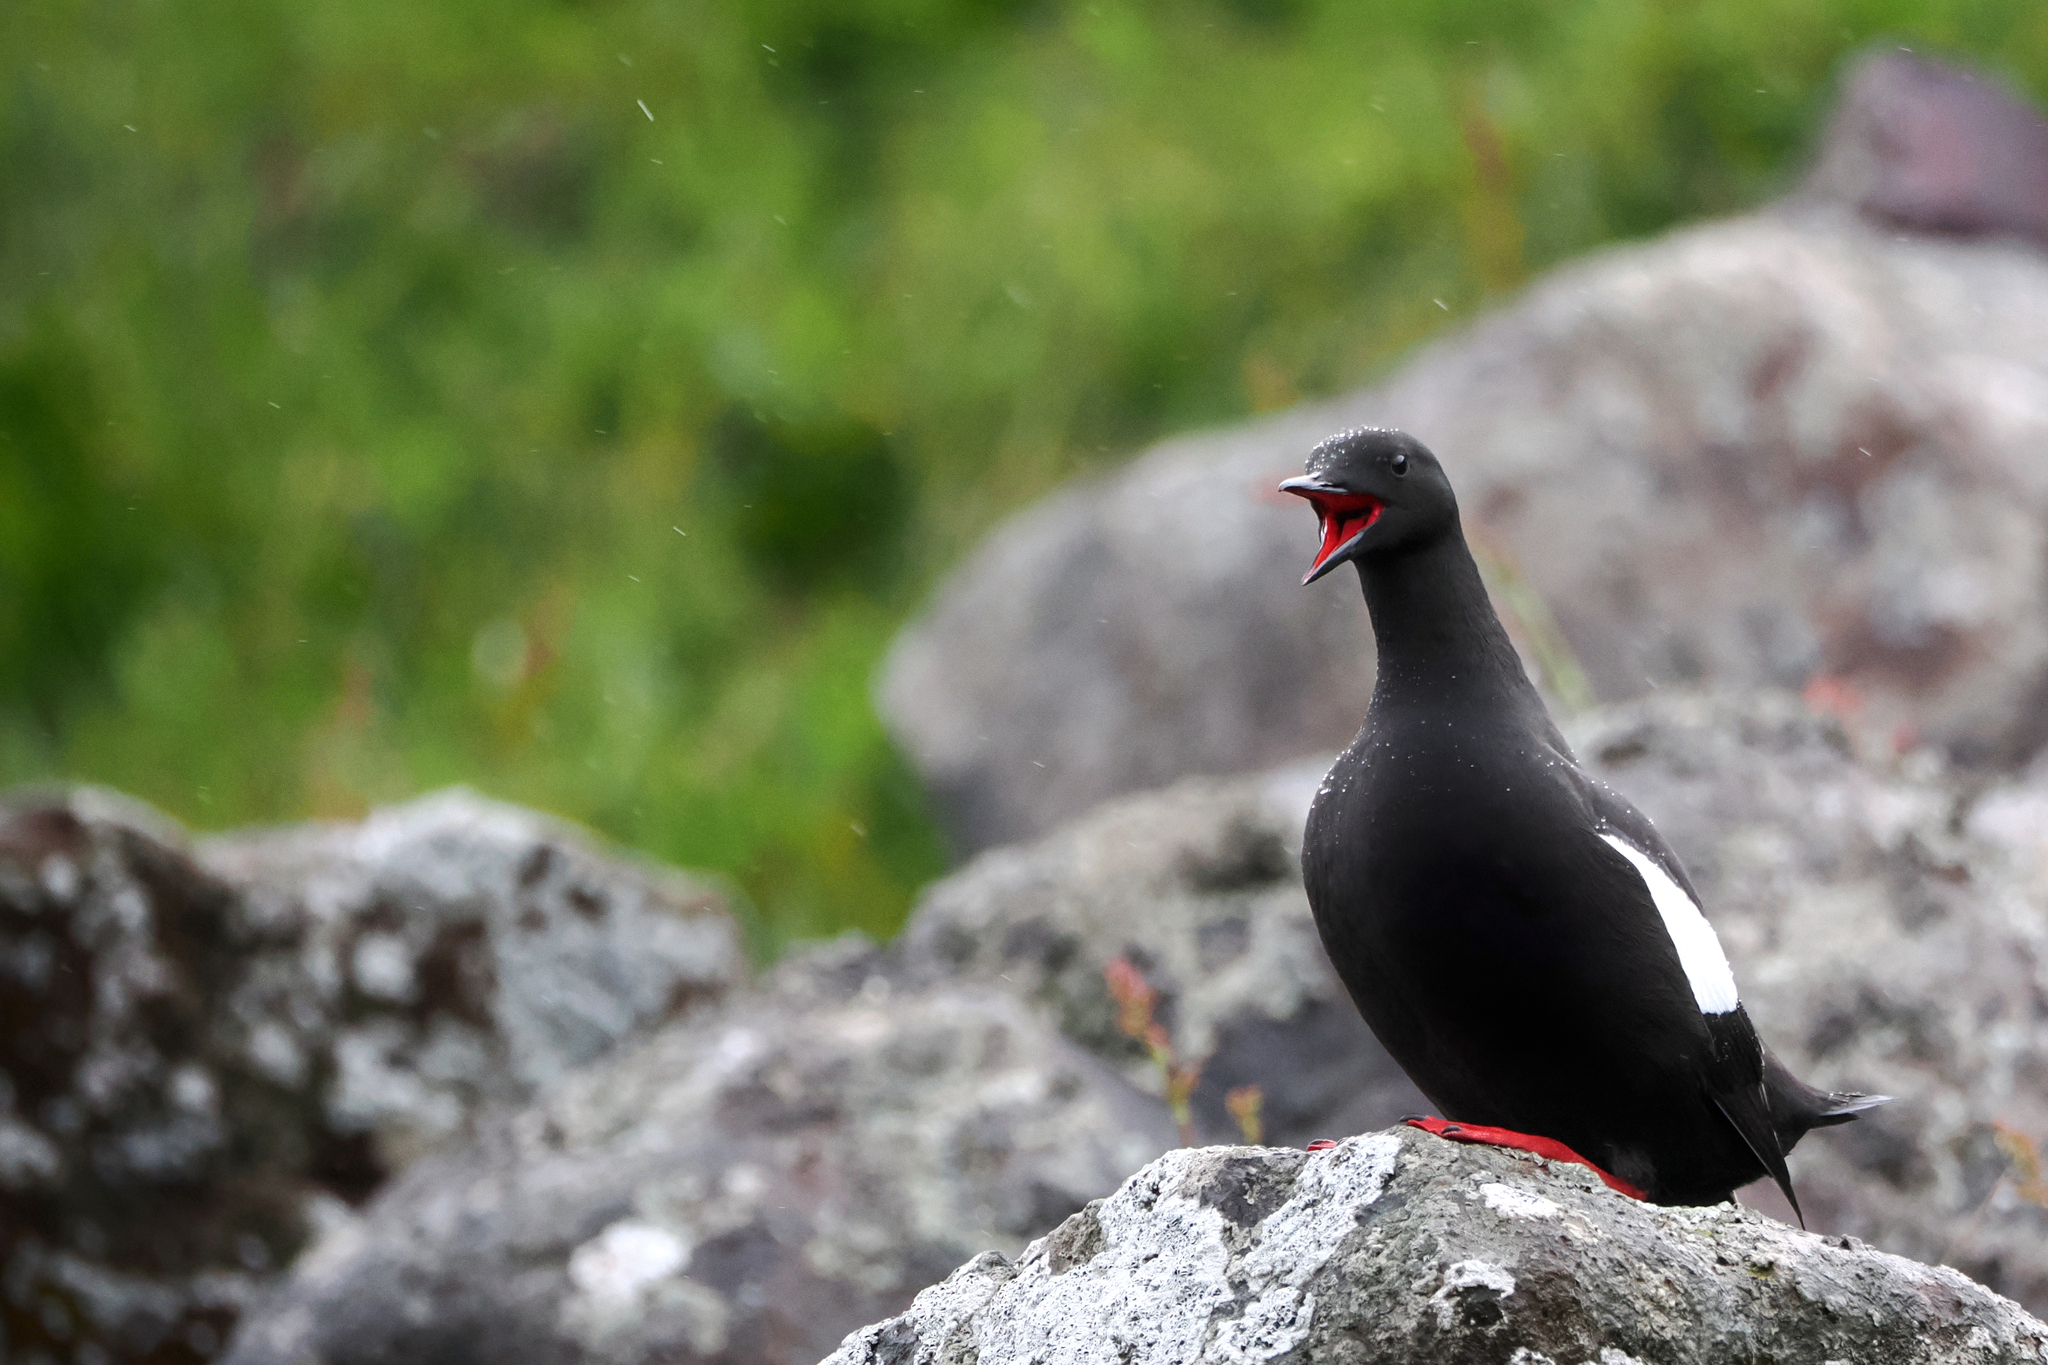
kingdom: Animalia
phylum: Chordata
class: Aves
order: Charadriiformes
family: Alcidae
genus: Cepphus
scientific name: Cepphus grylle
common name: Black guillemot
